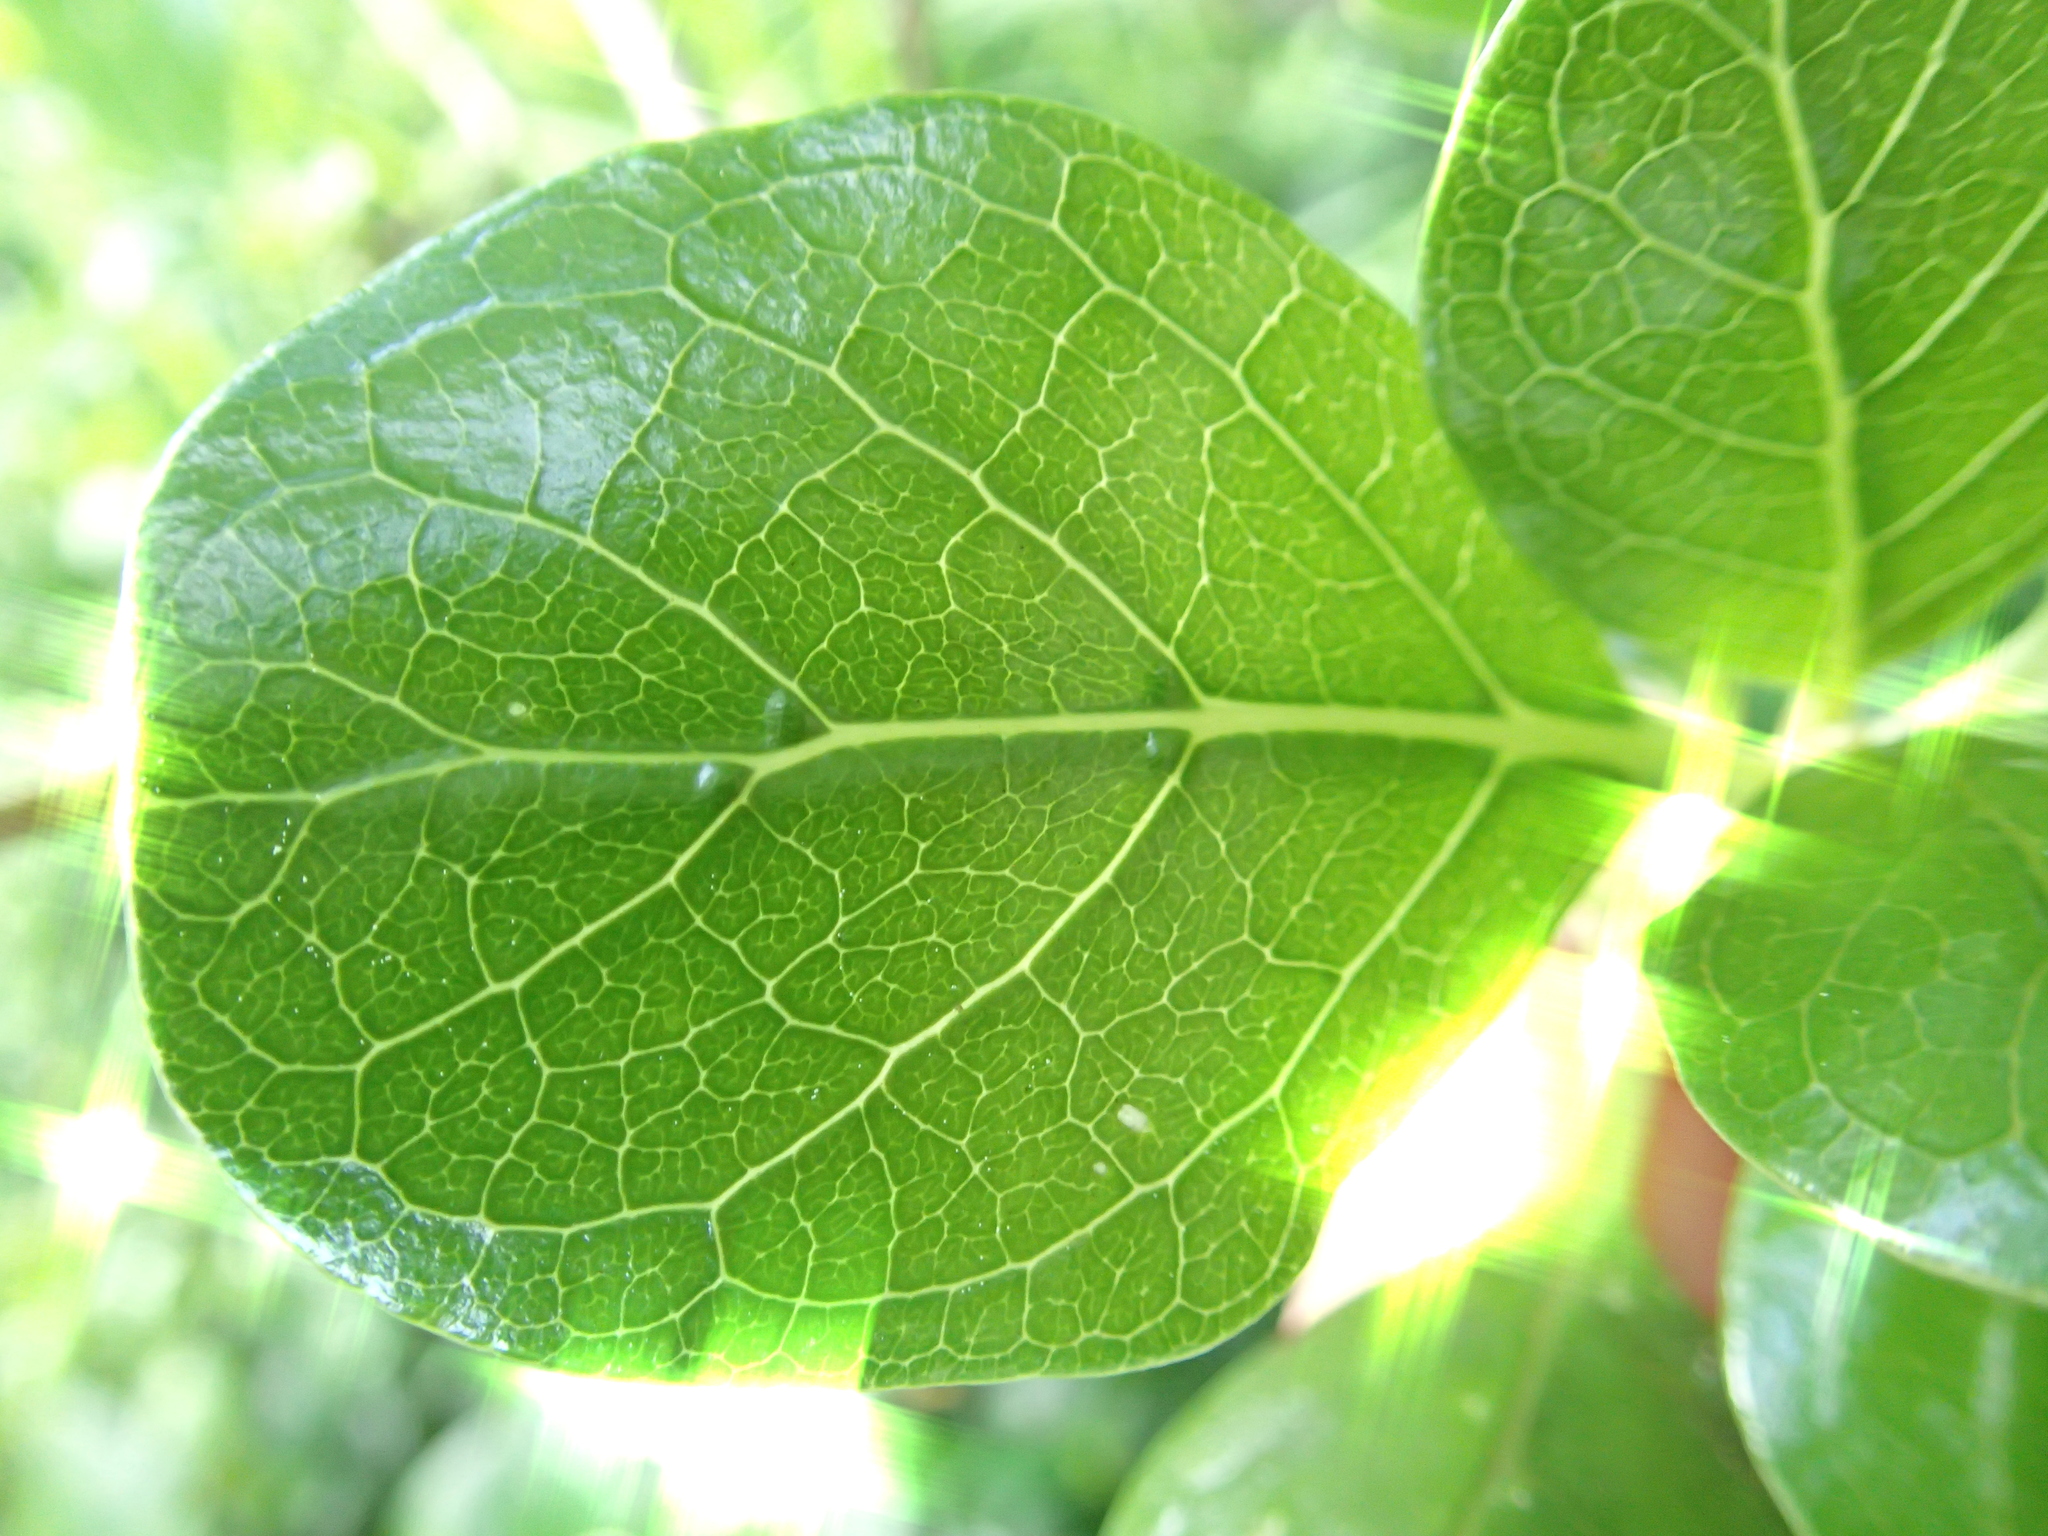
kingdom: Plantae
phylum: Tracheophyta
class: Magnoliopsida
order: Gentianales
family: Rubiaceae
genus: Coprosma
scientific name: Coprosma repens
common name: Tree bedstraw
